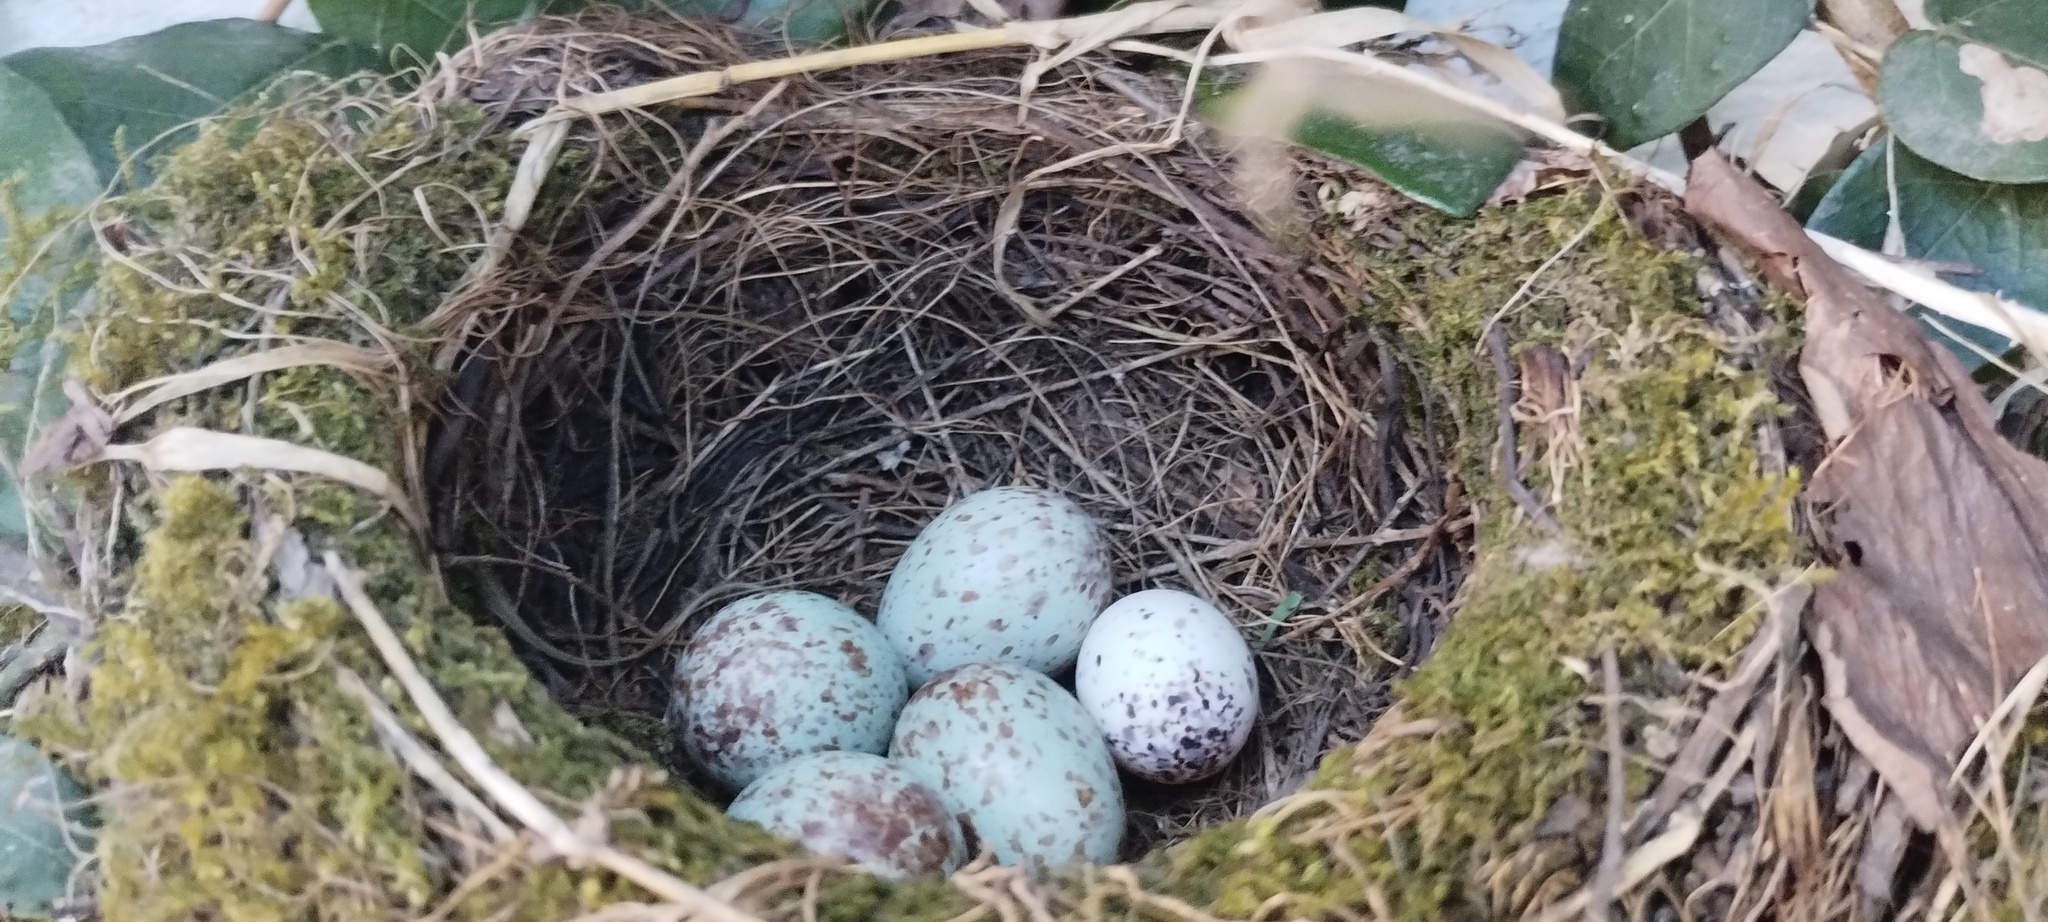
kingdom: Animalia
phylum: Chordata
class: Aves
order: Passeriformes
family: Turdidae
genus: Turdus
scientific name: Turdus rufiventris
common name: Rufous-bellied thrush
